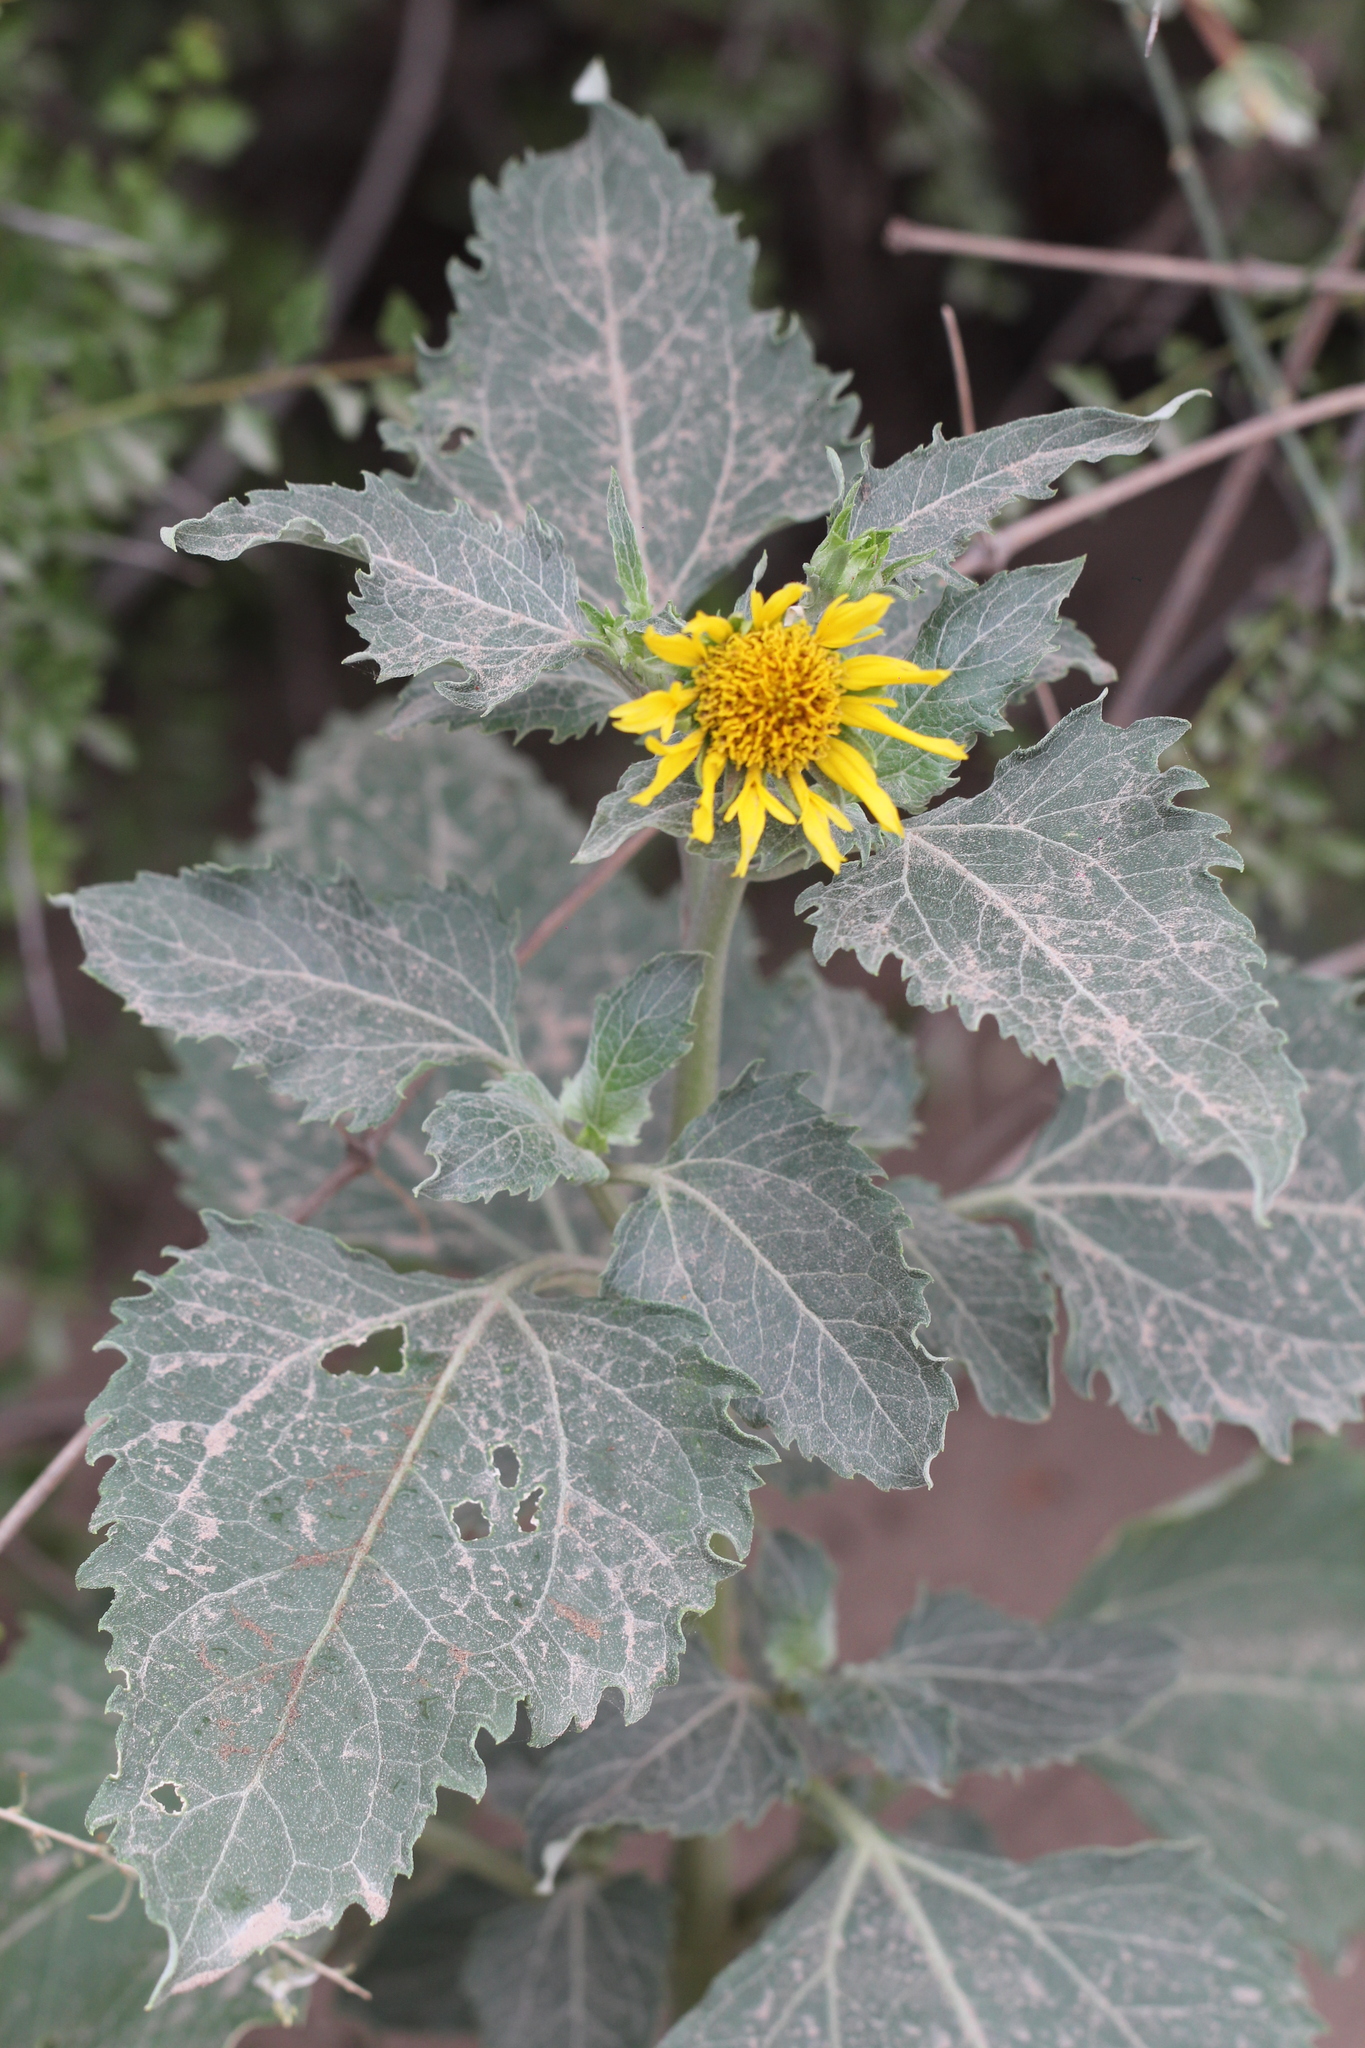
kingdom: Plantae
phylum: Tracheophyta
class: Magnoliopsida
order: Asterales
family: Asteraceae
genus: Verbesina
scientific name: Verbesina encelioides
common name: Golden crownbeard
